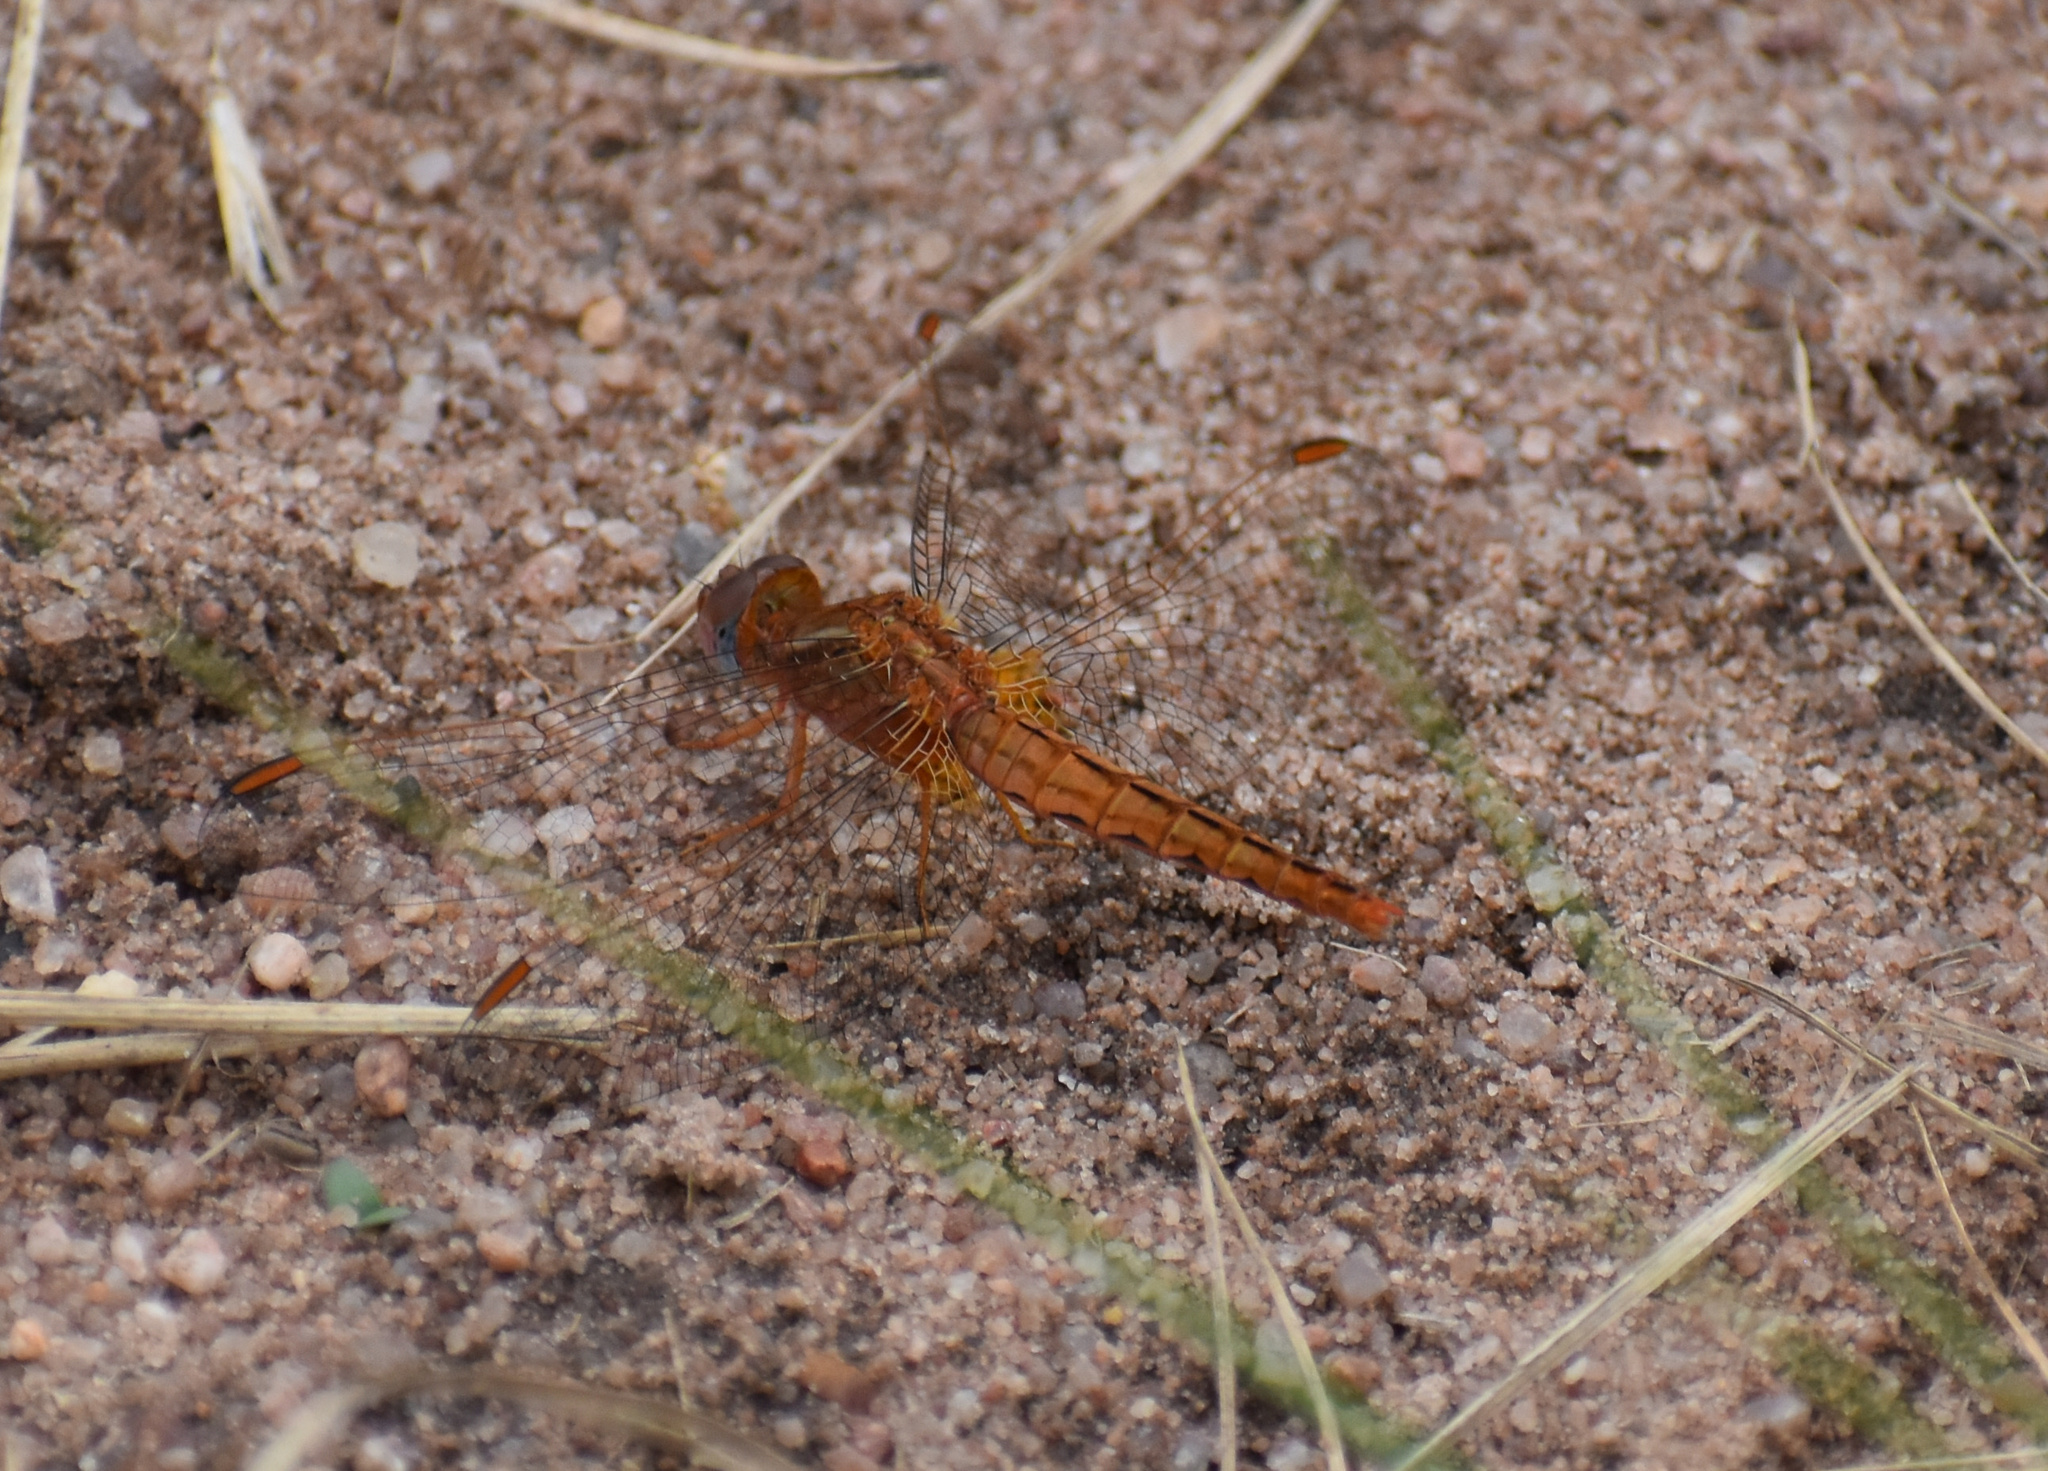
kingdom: Animalia
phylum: Arthropoda
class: Insecta
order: Odonata
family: Libellulidae
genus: Crocothemis
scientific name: Crocothemis sanguinolenta
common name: Little scarlet
